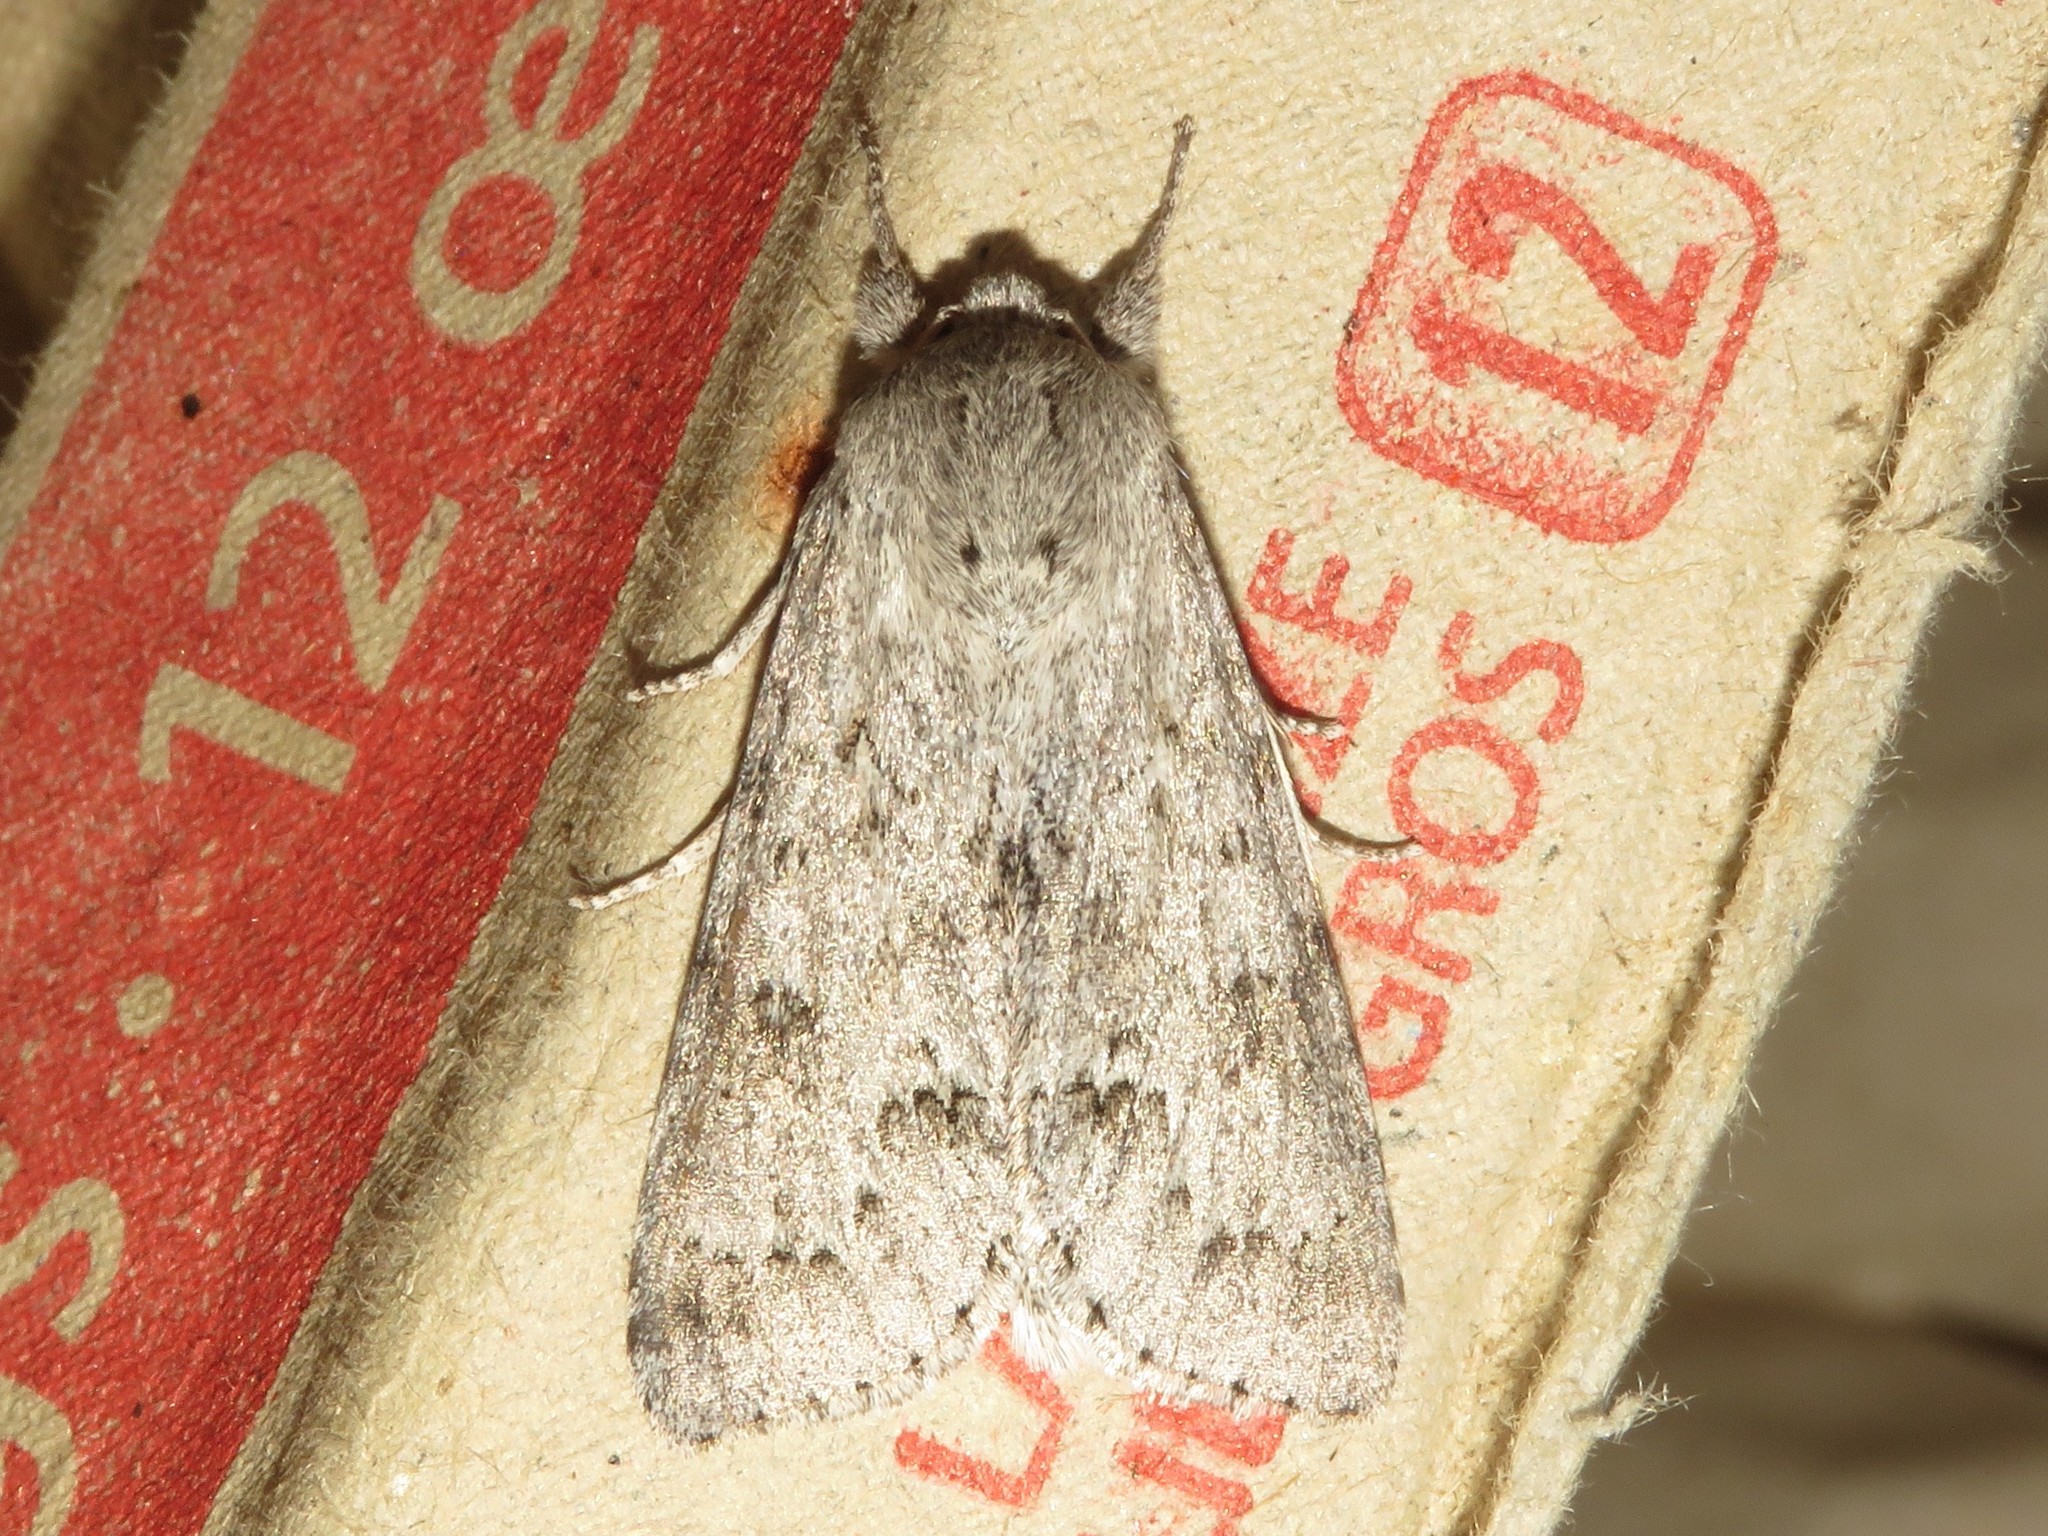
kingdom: Animalia
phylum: Arthropoda
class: Insecta
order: Lepidoptera
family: Noctuidae
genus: Acronicta
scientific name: Acronicta insita
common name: Large gray dagger
